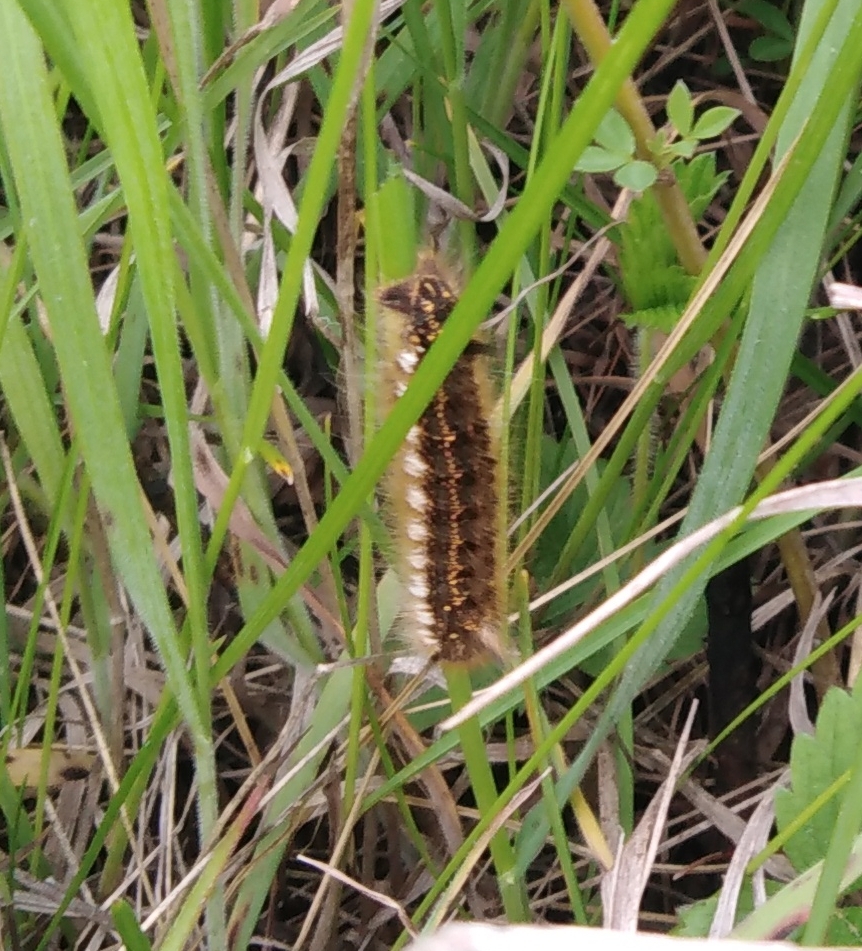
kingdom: Animalia
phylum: Arthropoda
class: Insecta
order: Lepidoptera
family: Lasiocampidae
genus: Euthrix
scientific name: Euthrix potatoria
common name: Drinker
